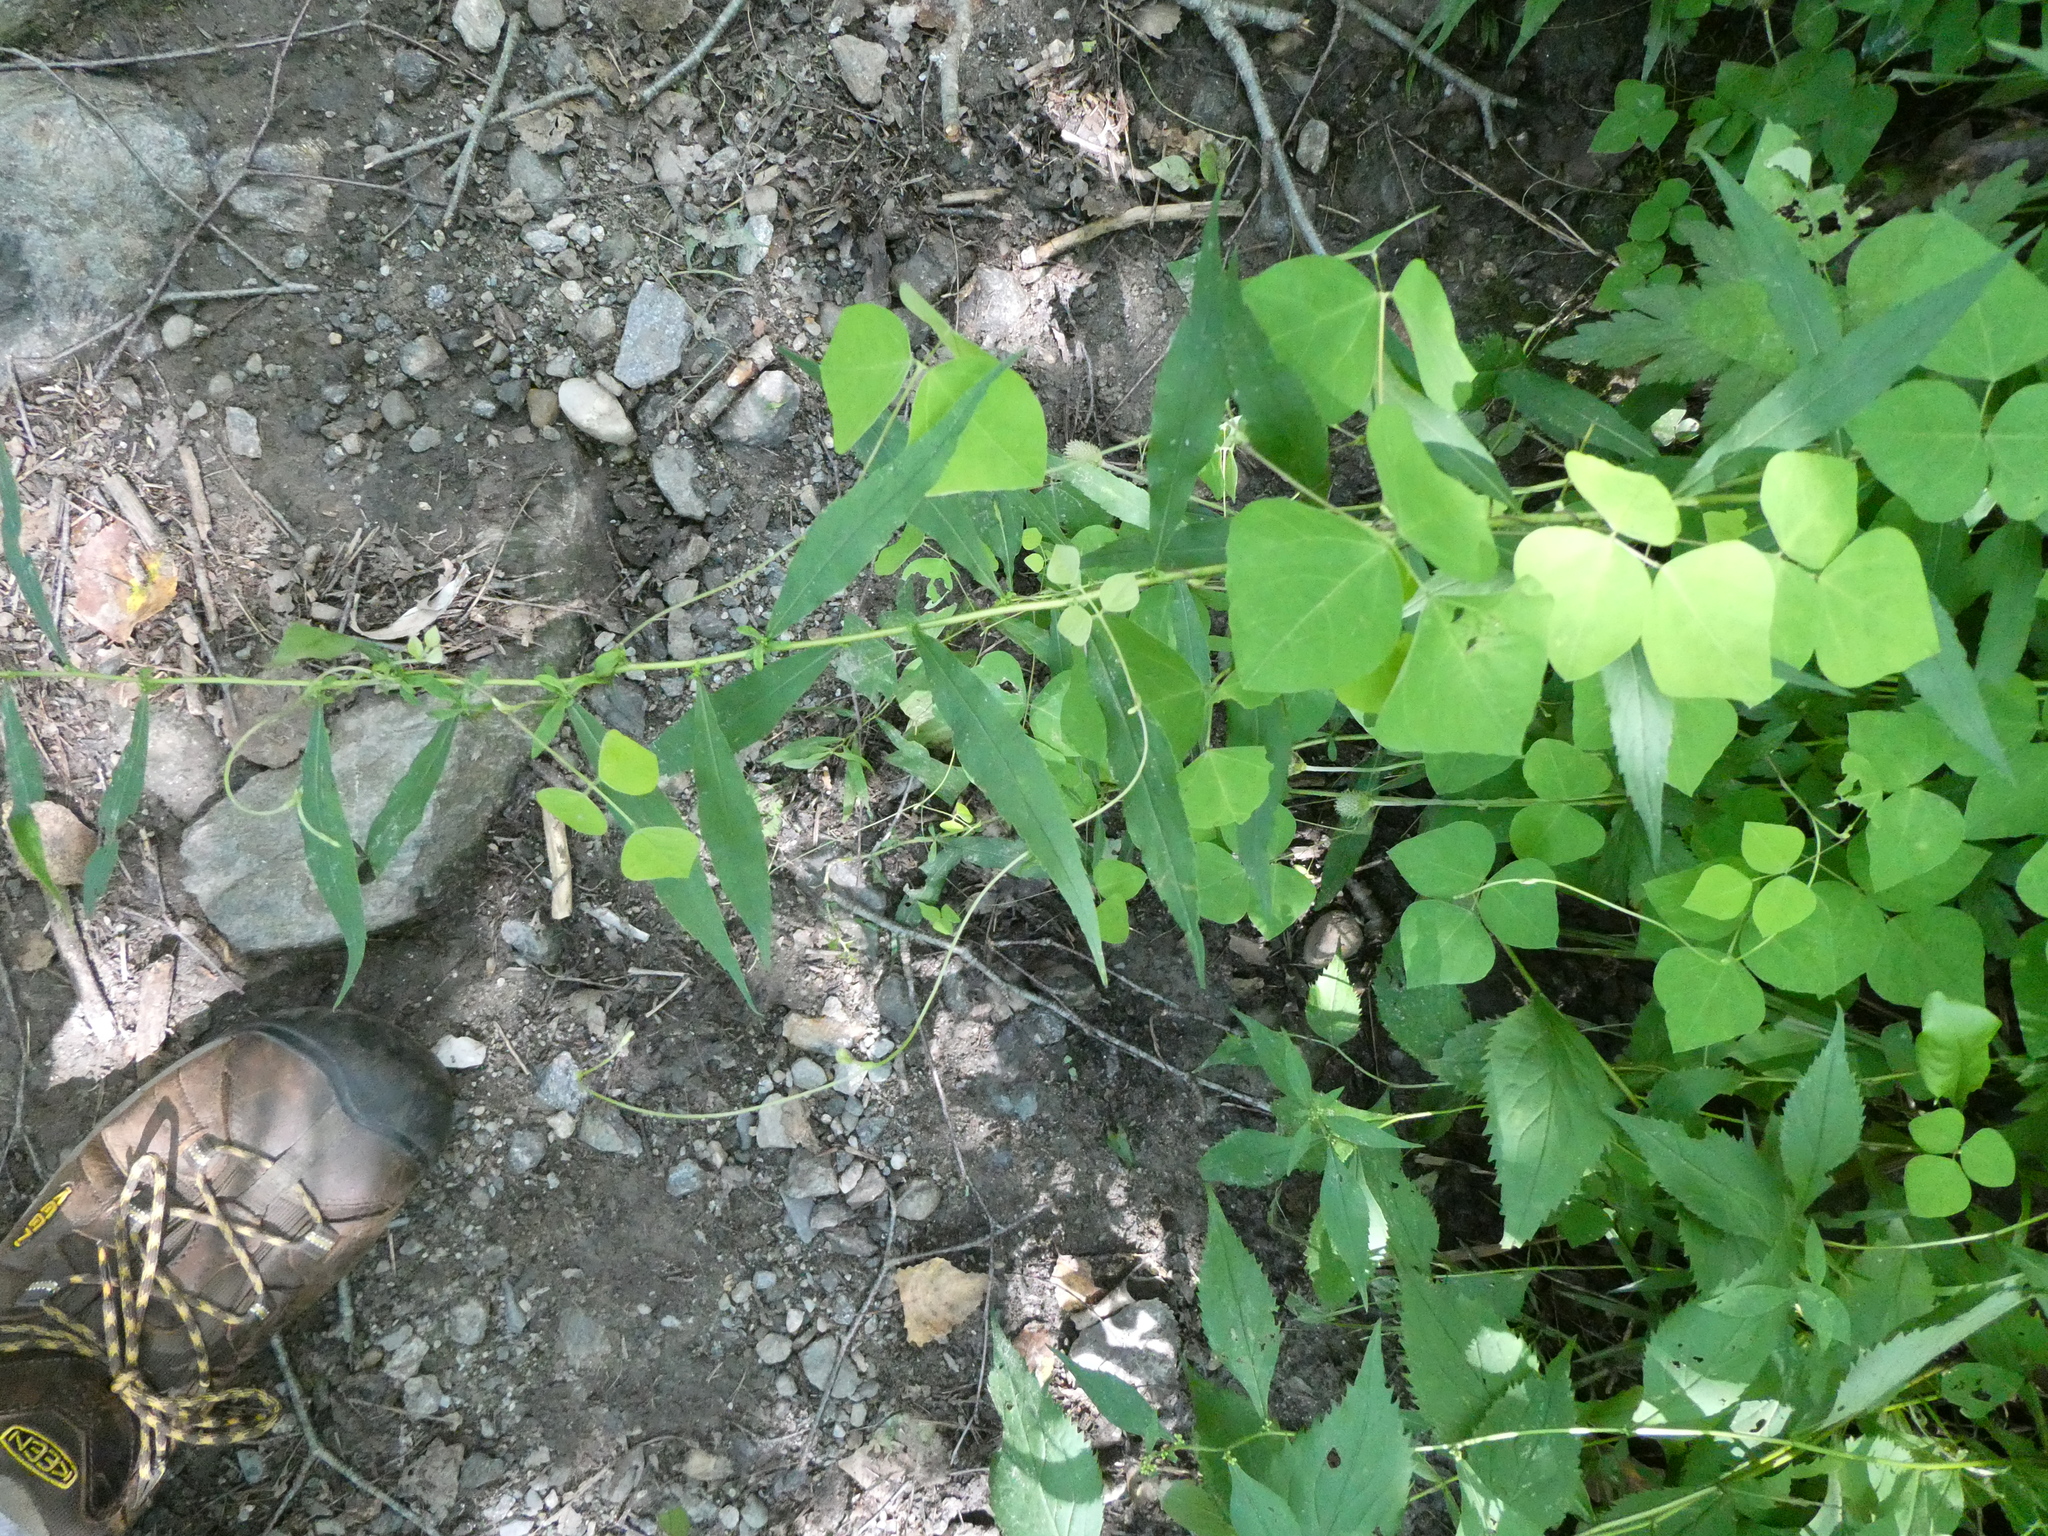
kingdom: Plantae
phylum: Tracheophyta
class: Magnoliopsida
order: Fabales
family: Fabaceae
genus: Amphicarpaea
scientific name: Amphicarpaea bracteata
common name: American hog peanut
